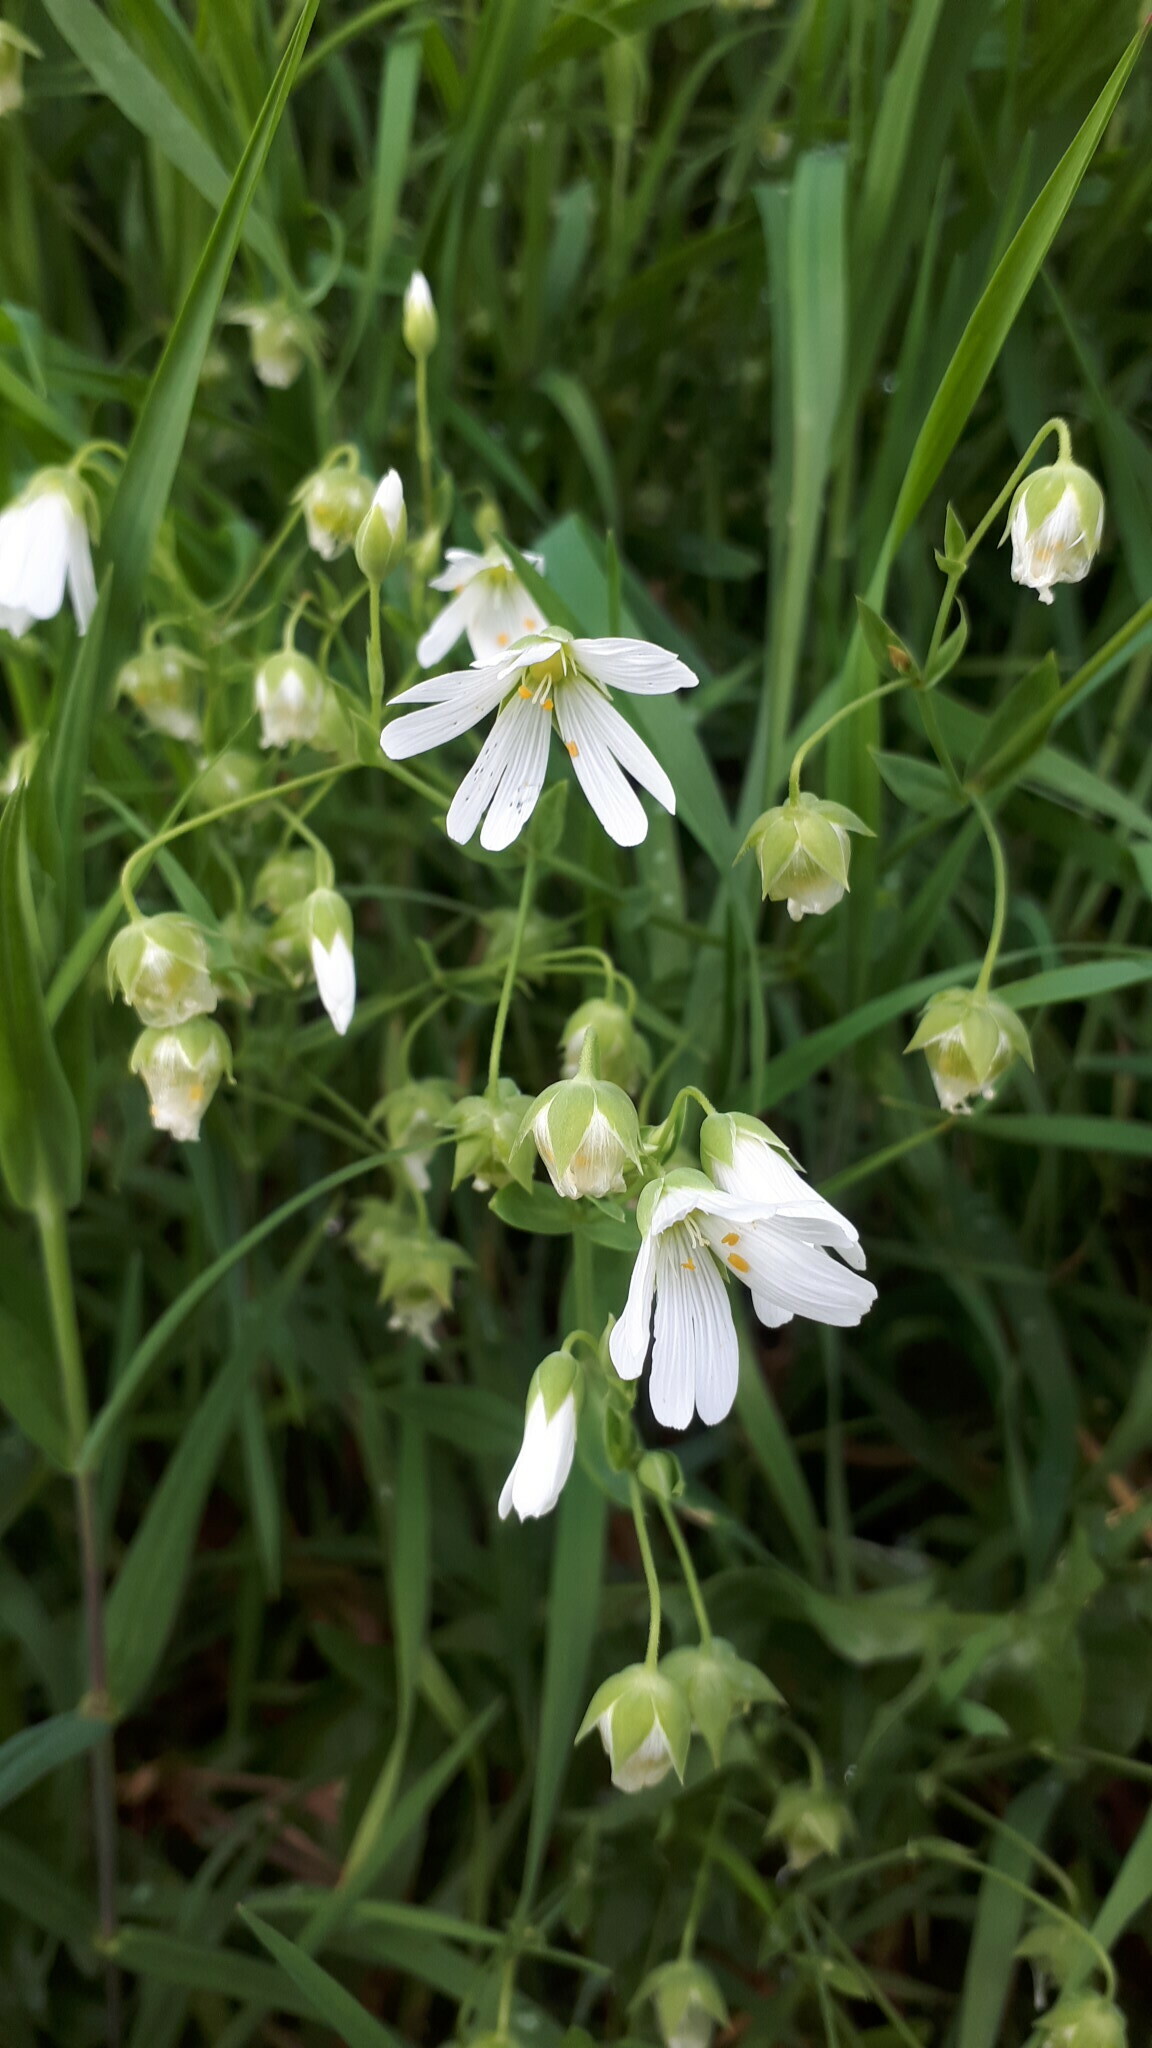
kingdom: Plantae
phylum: Tracheophyta
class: Magnoliopsida
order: Caryophyllales
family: Caryophyllaceae
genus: Rabelera
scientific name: Rabelera holostea
